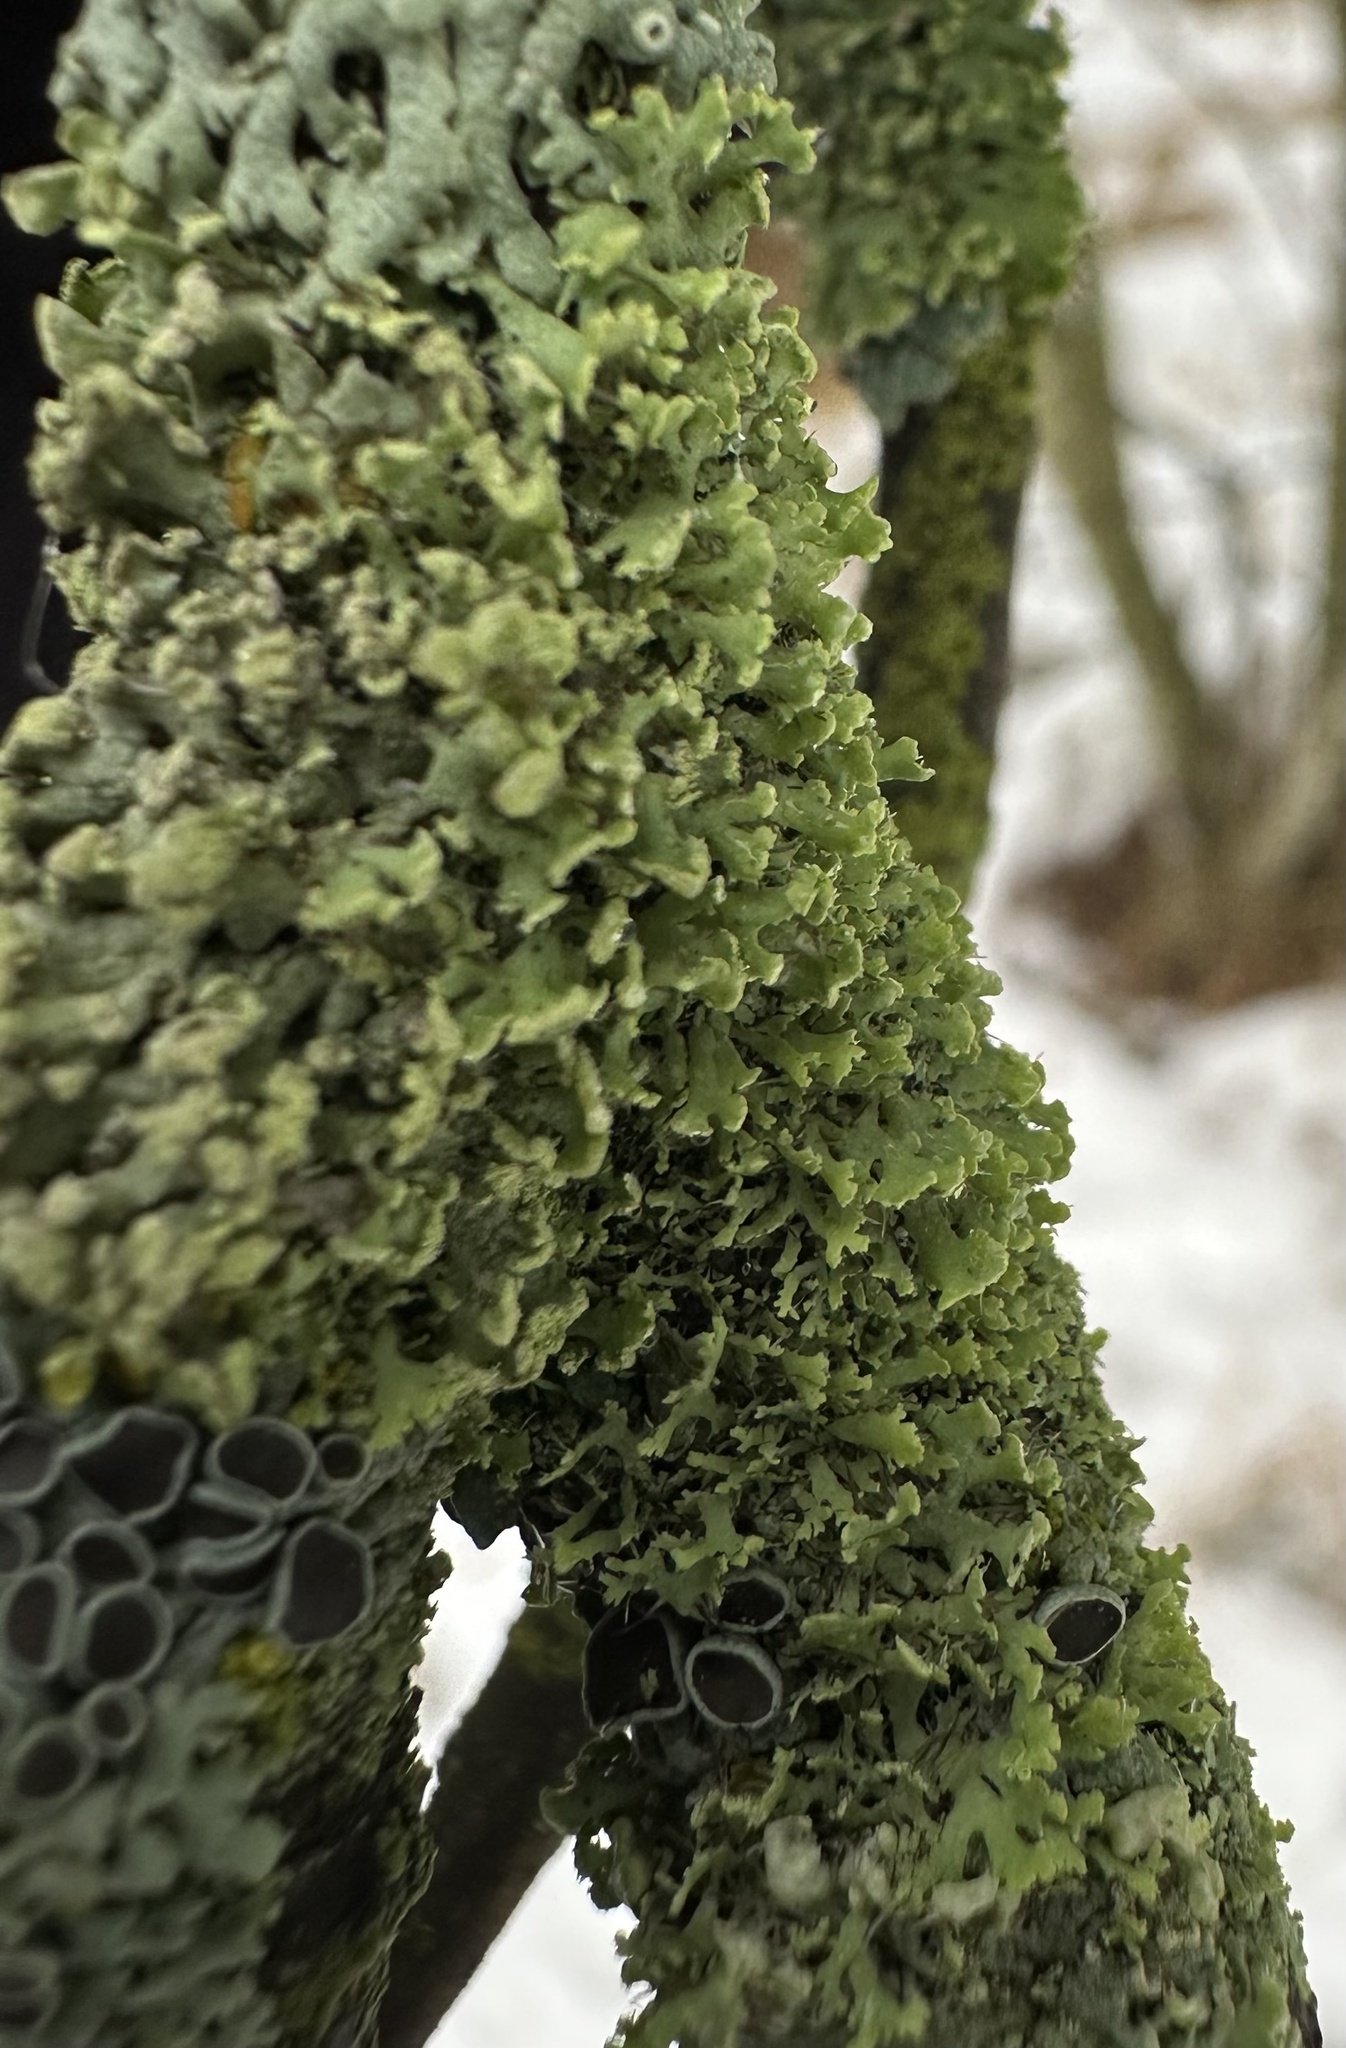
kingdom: Fungi
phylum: Ascomycota
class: Lecanoromycetes
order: Caliciales
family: Physciaceae
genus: Physcia
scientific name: Physcia tenella
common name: Fringed rosette lichen
